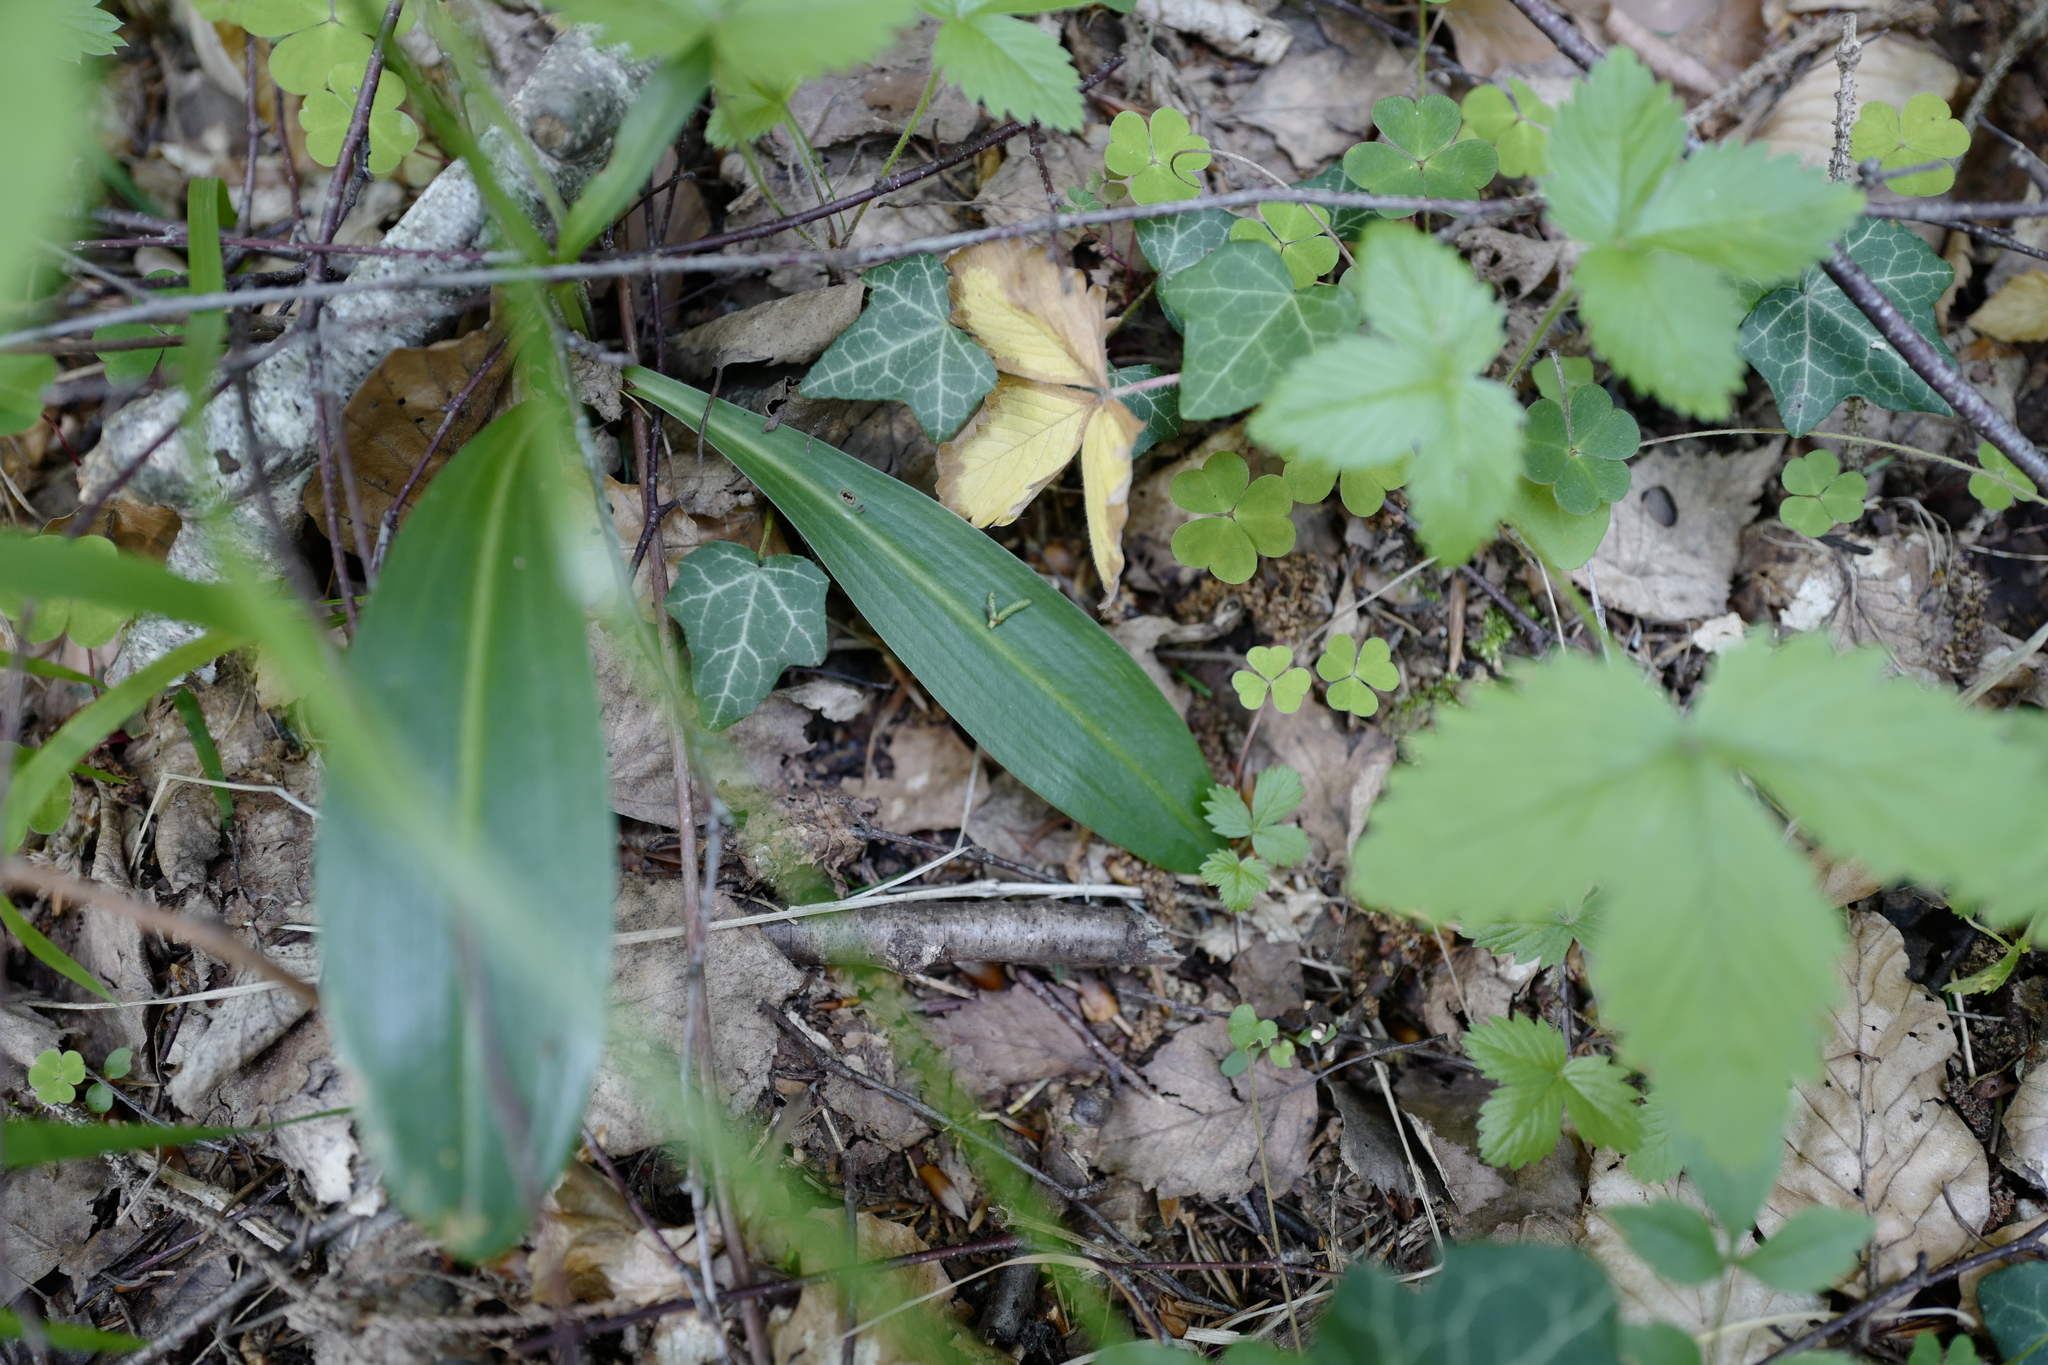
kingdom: Plantae
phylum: Tracheophyta
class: Liliopsida
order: Asparagales
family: Orchidaceae
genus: Platanthera
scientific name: Platanthera chlorantha
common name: Greater butterfly-orchid
